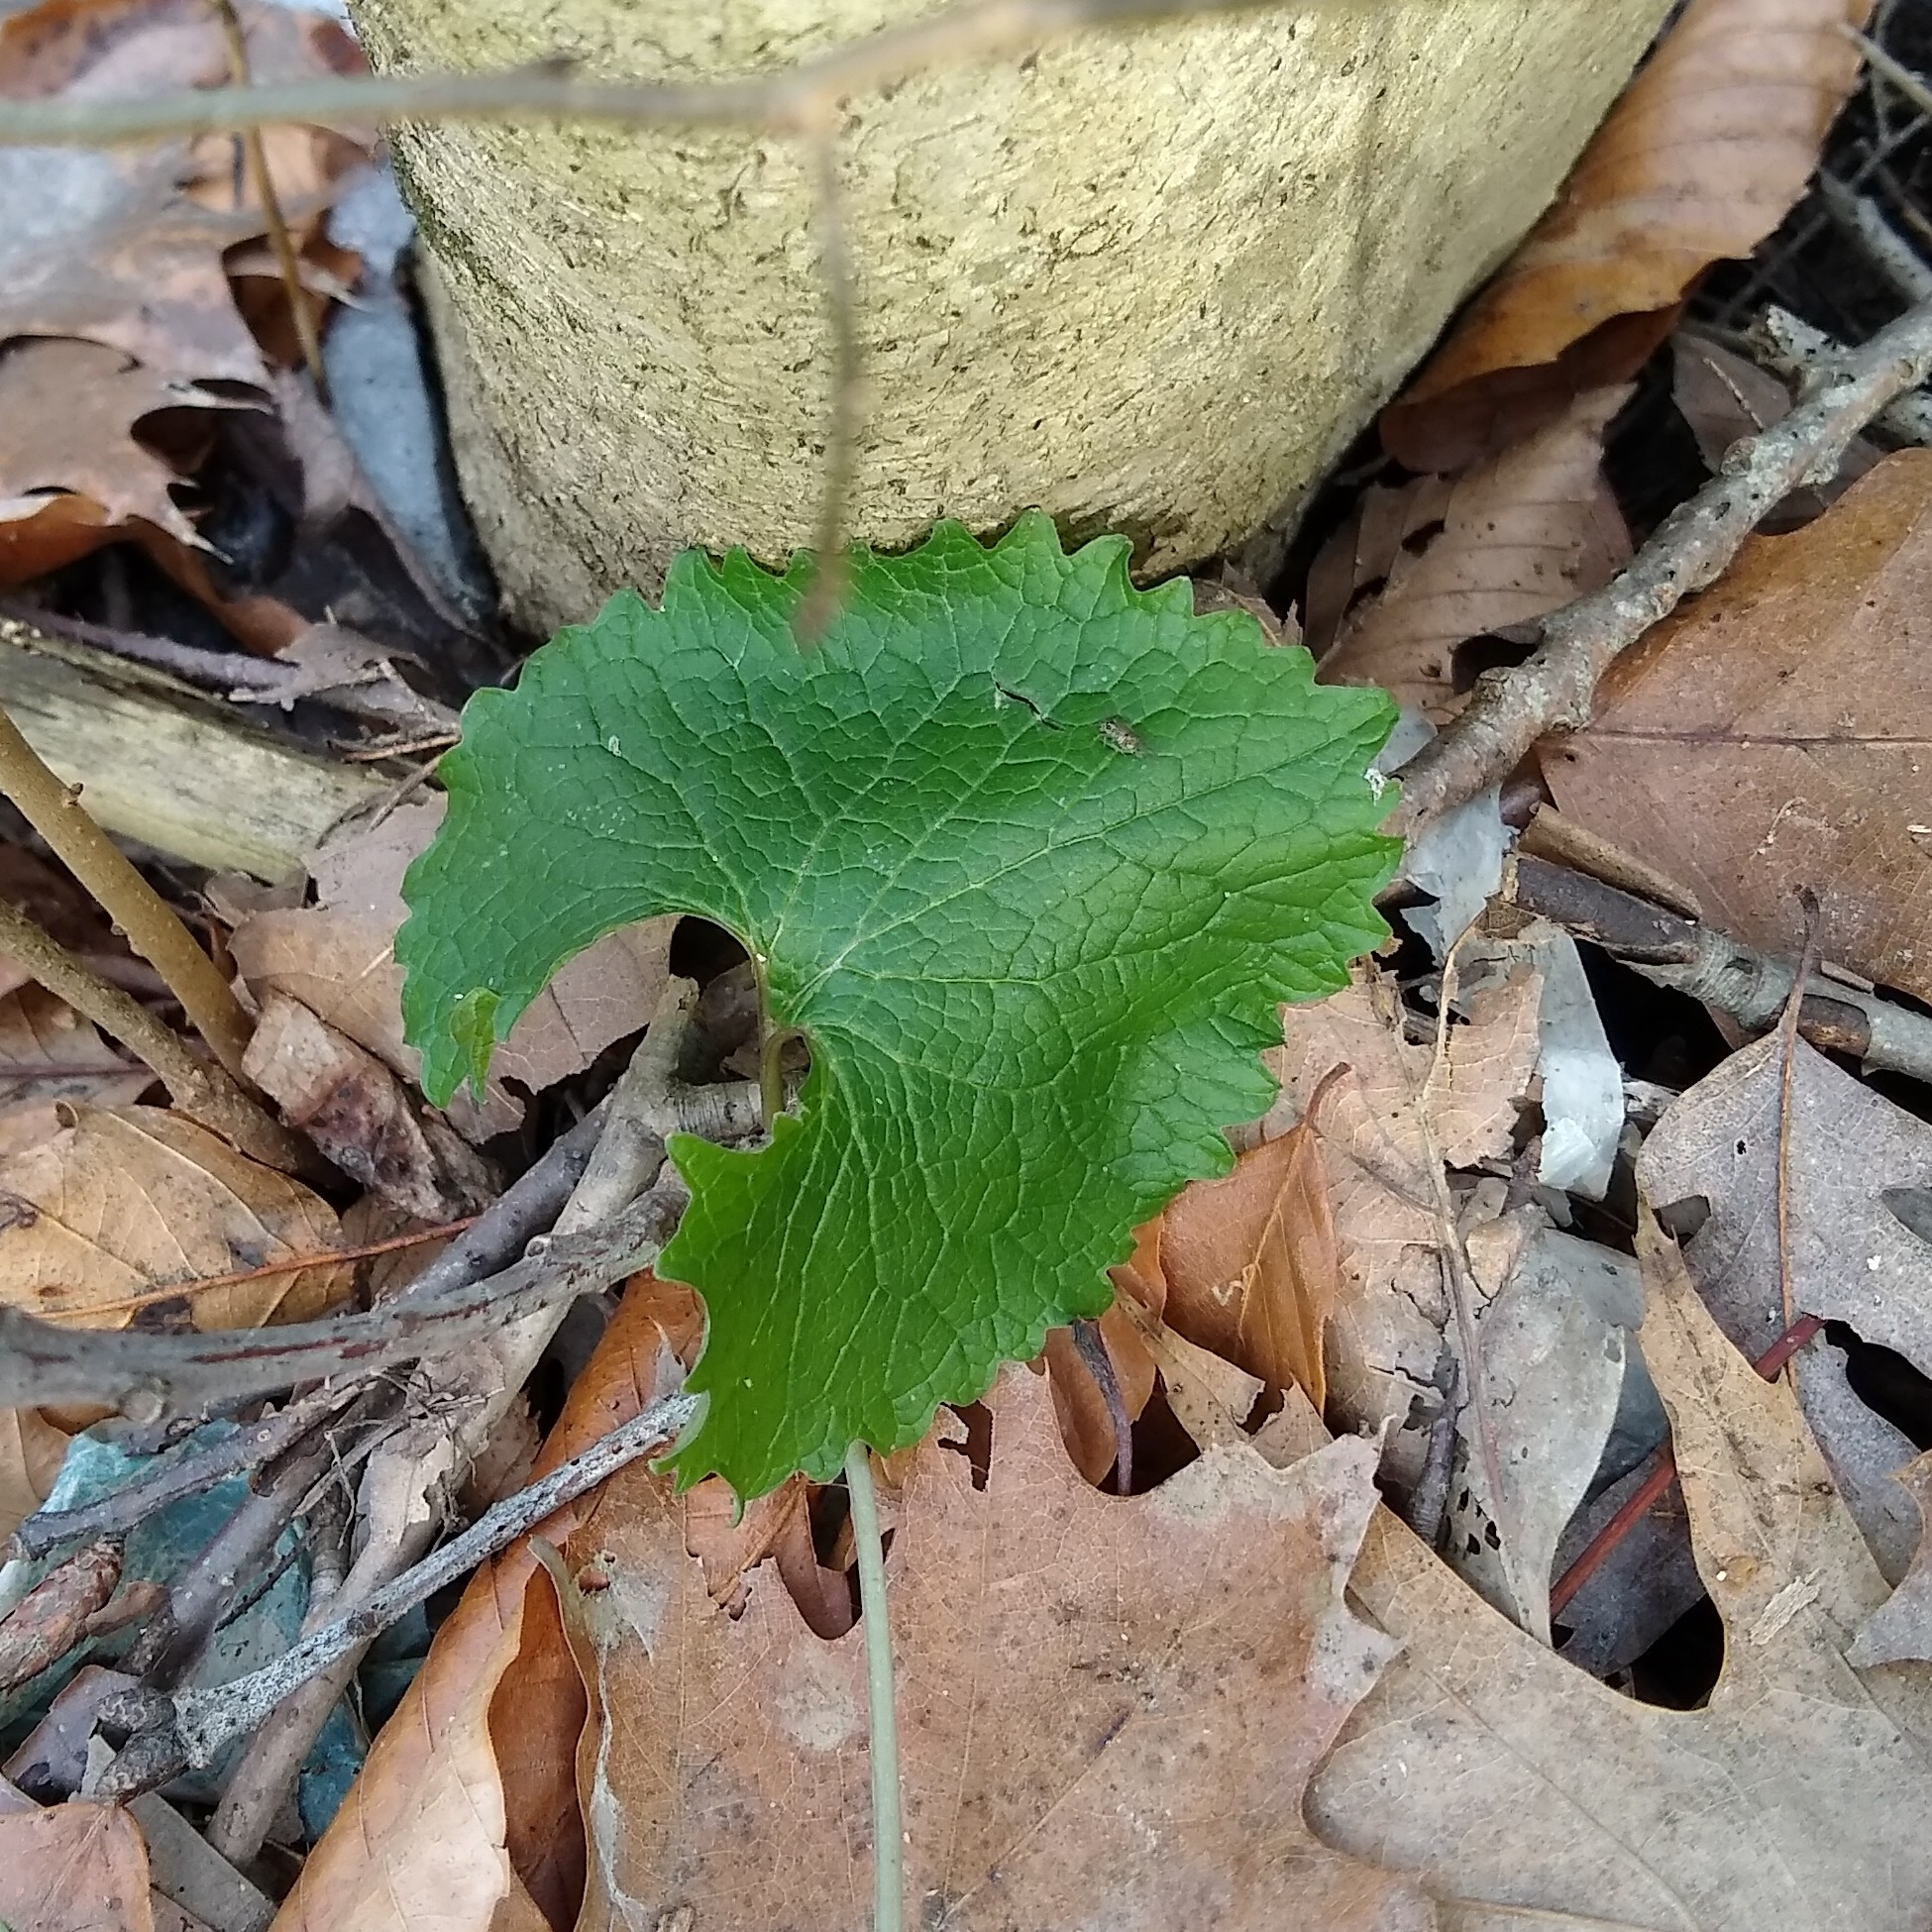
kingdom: Plantae
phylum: Tracheophyta
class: Magnoliopsida
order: Brassicales
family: Brassicaceae
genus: Alliaria
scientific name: Alliaria petiolata
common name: Garlic mustard
